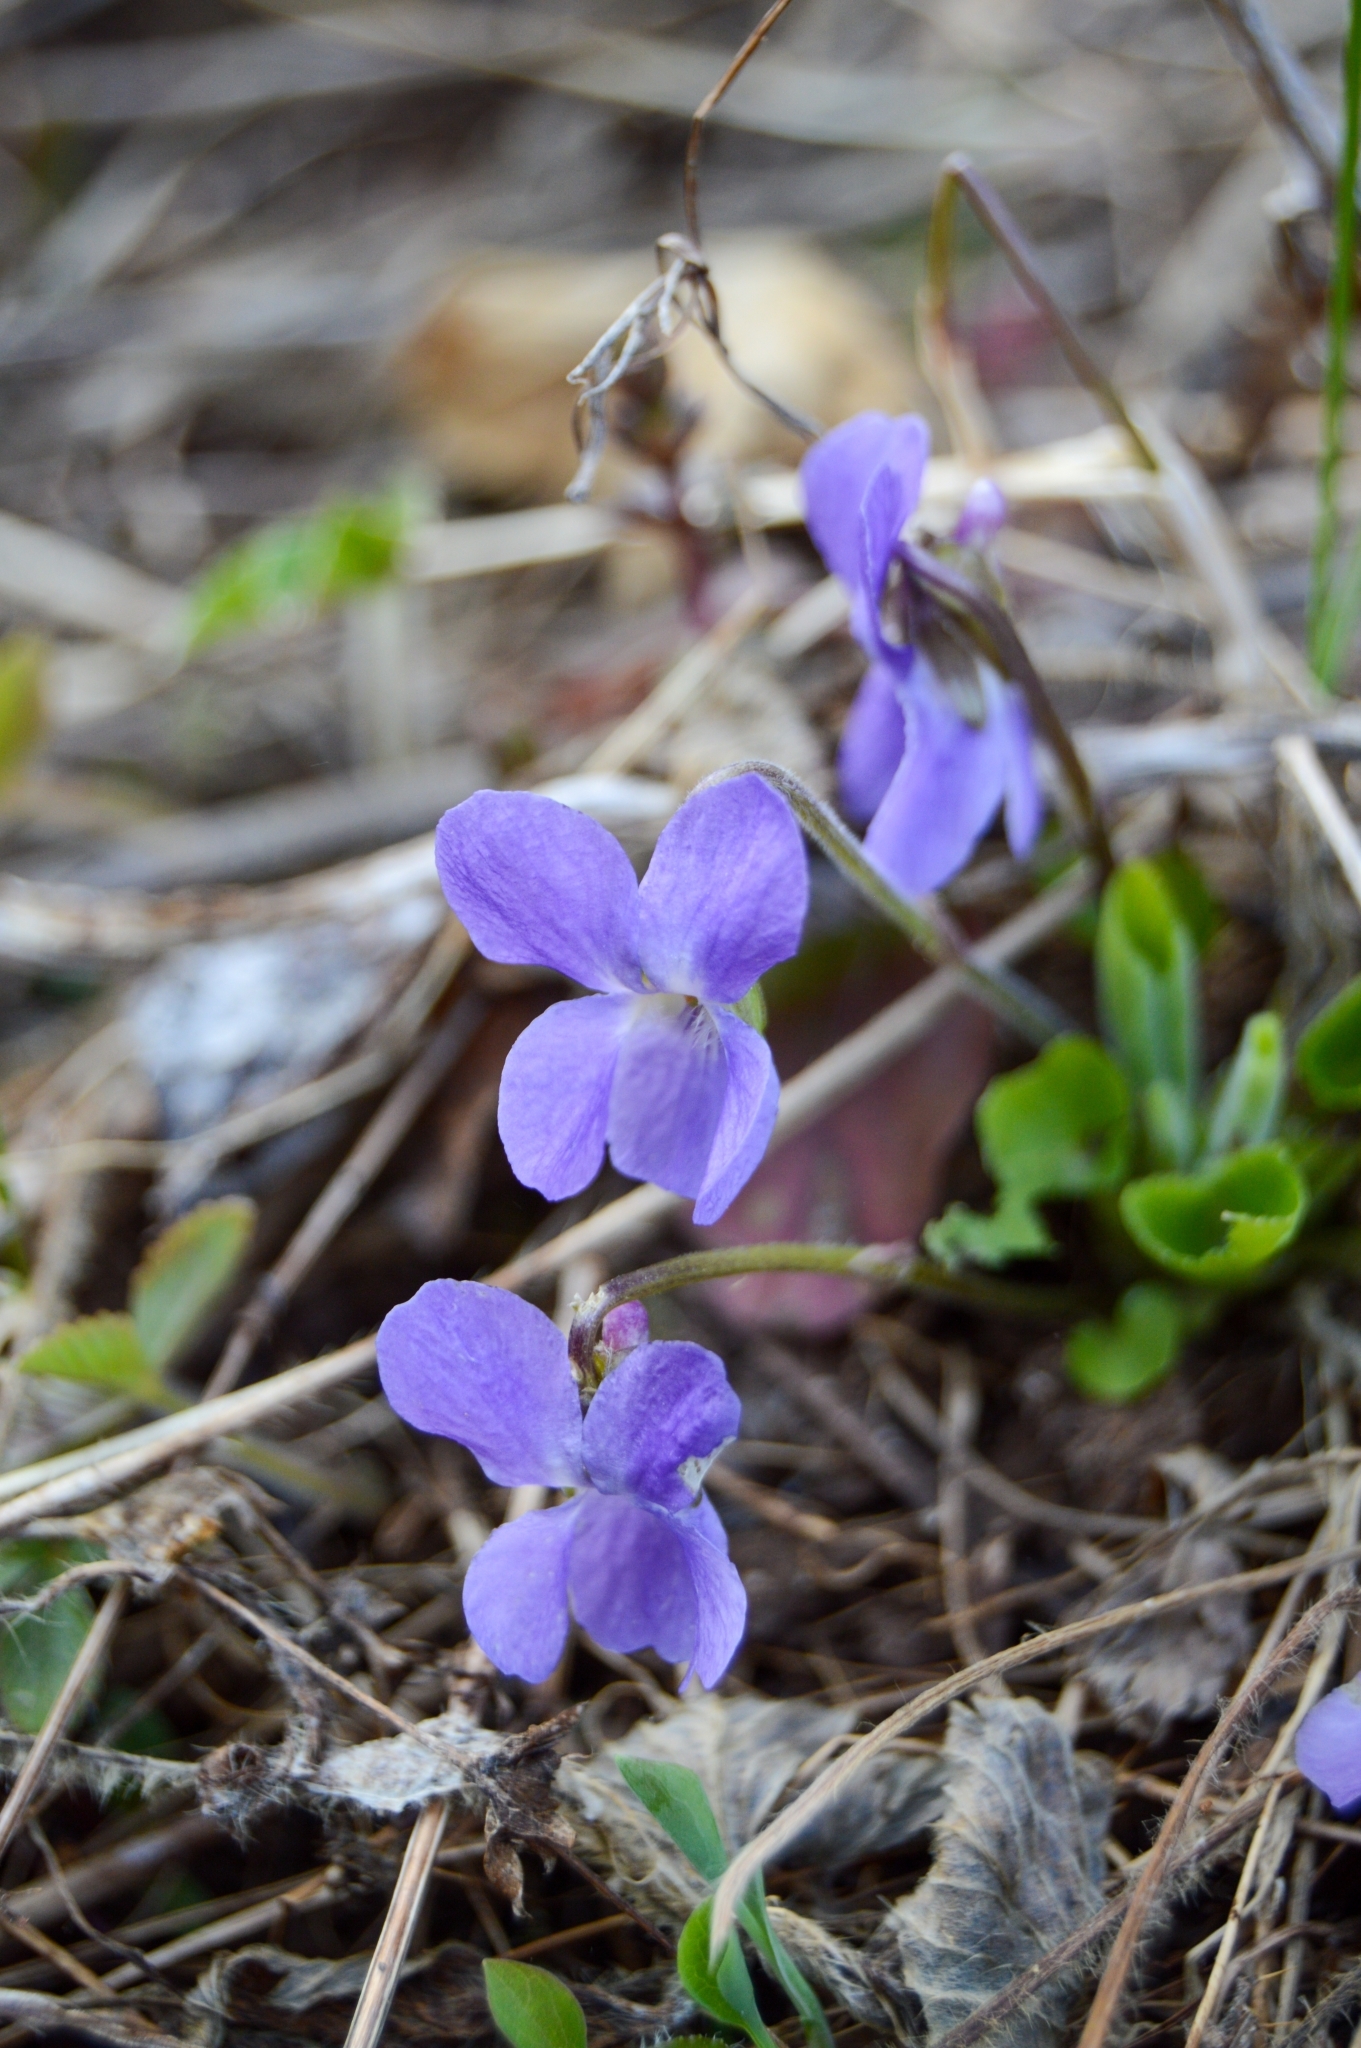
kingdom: Plantae
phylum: Tracheophyta
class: Magnoliopsida
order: Malpighiales
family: Violaceae
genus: Viola
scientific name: Viola hirta
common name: Hairy violet
